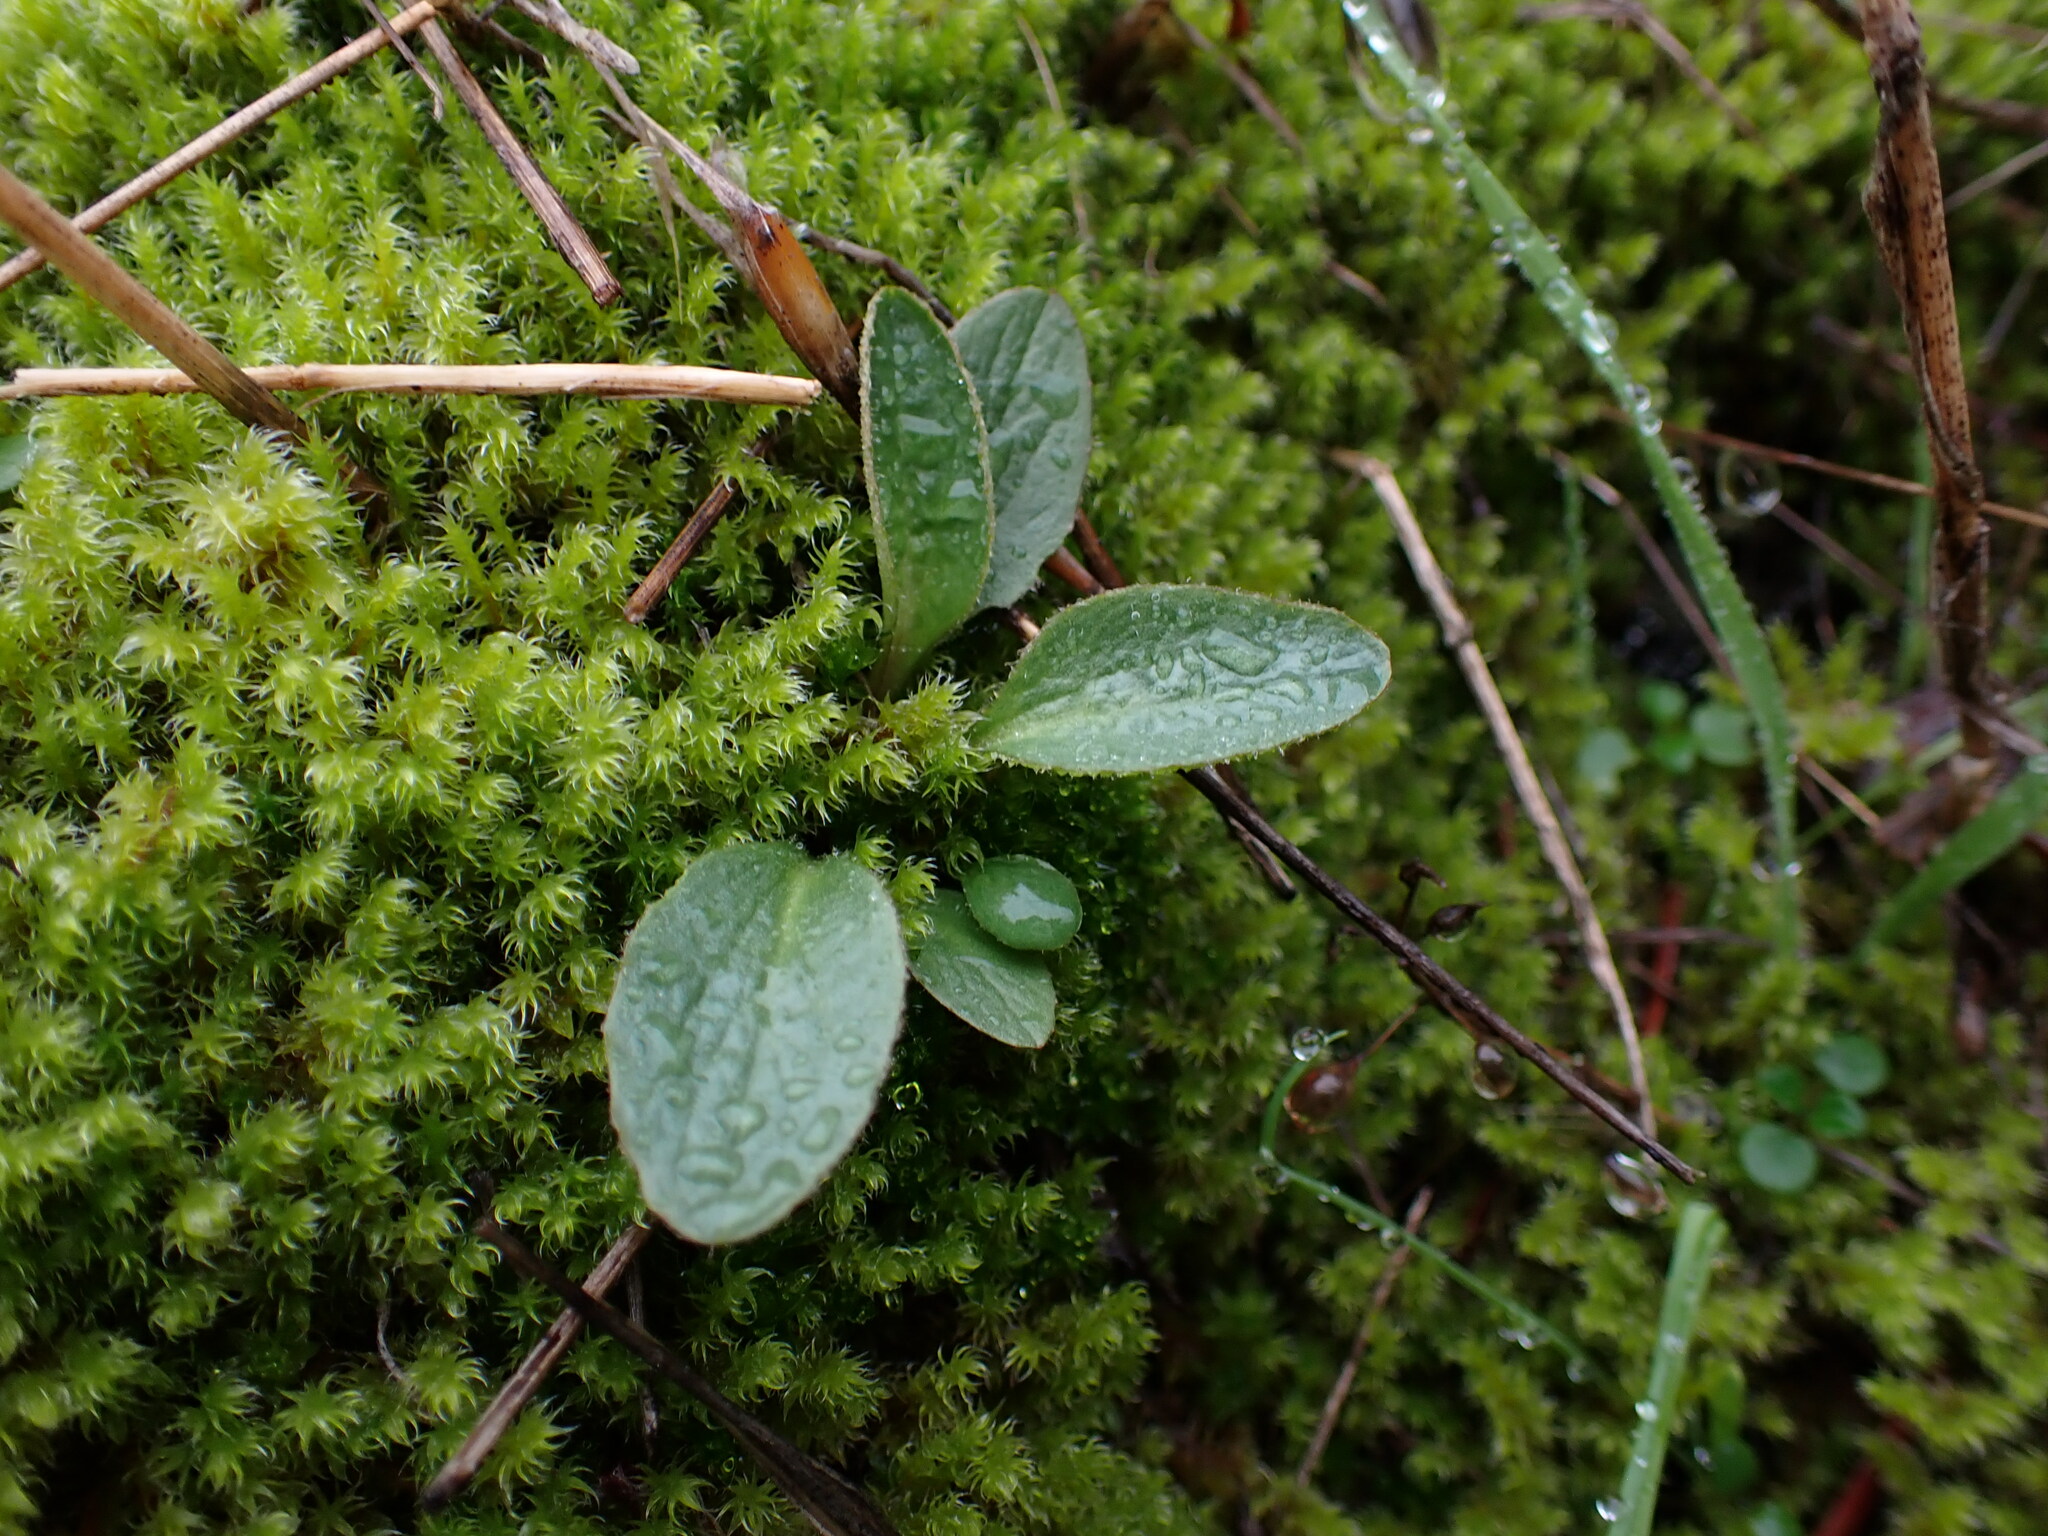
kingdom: Plantae
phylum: Tracheophyta
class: Magnoliopsida
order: Saxifragales
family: Saxifragaceae
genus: Micranthes
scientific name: Micranthes integrifolia
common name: Wholeleaf saxifrage
